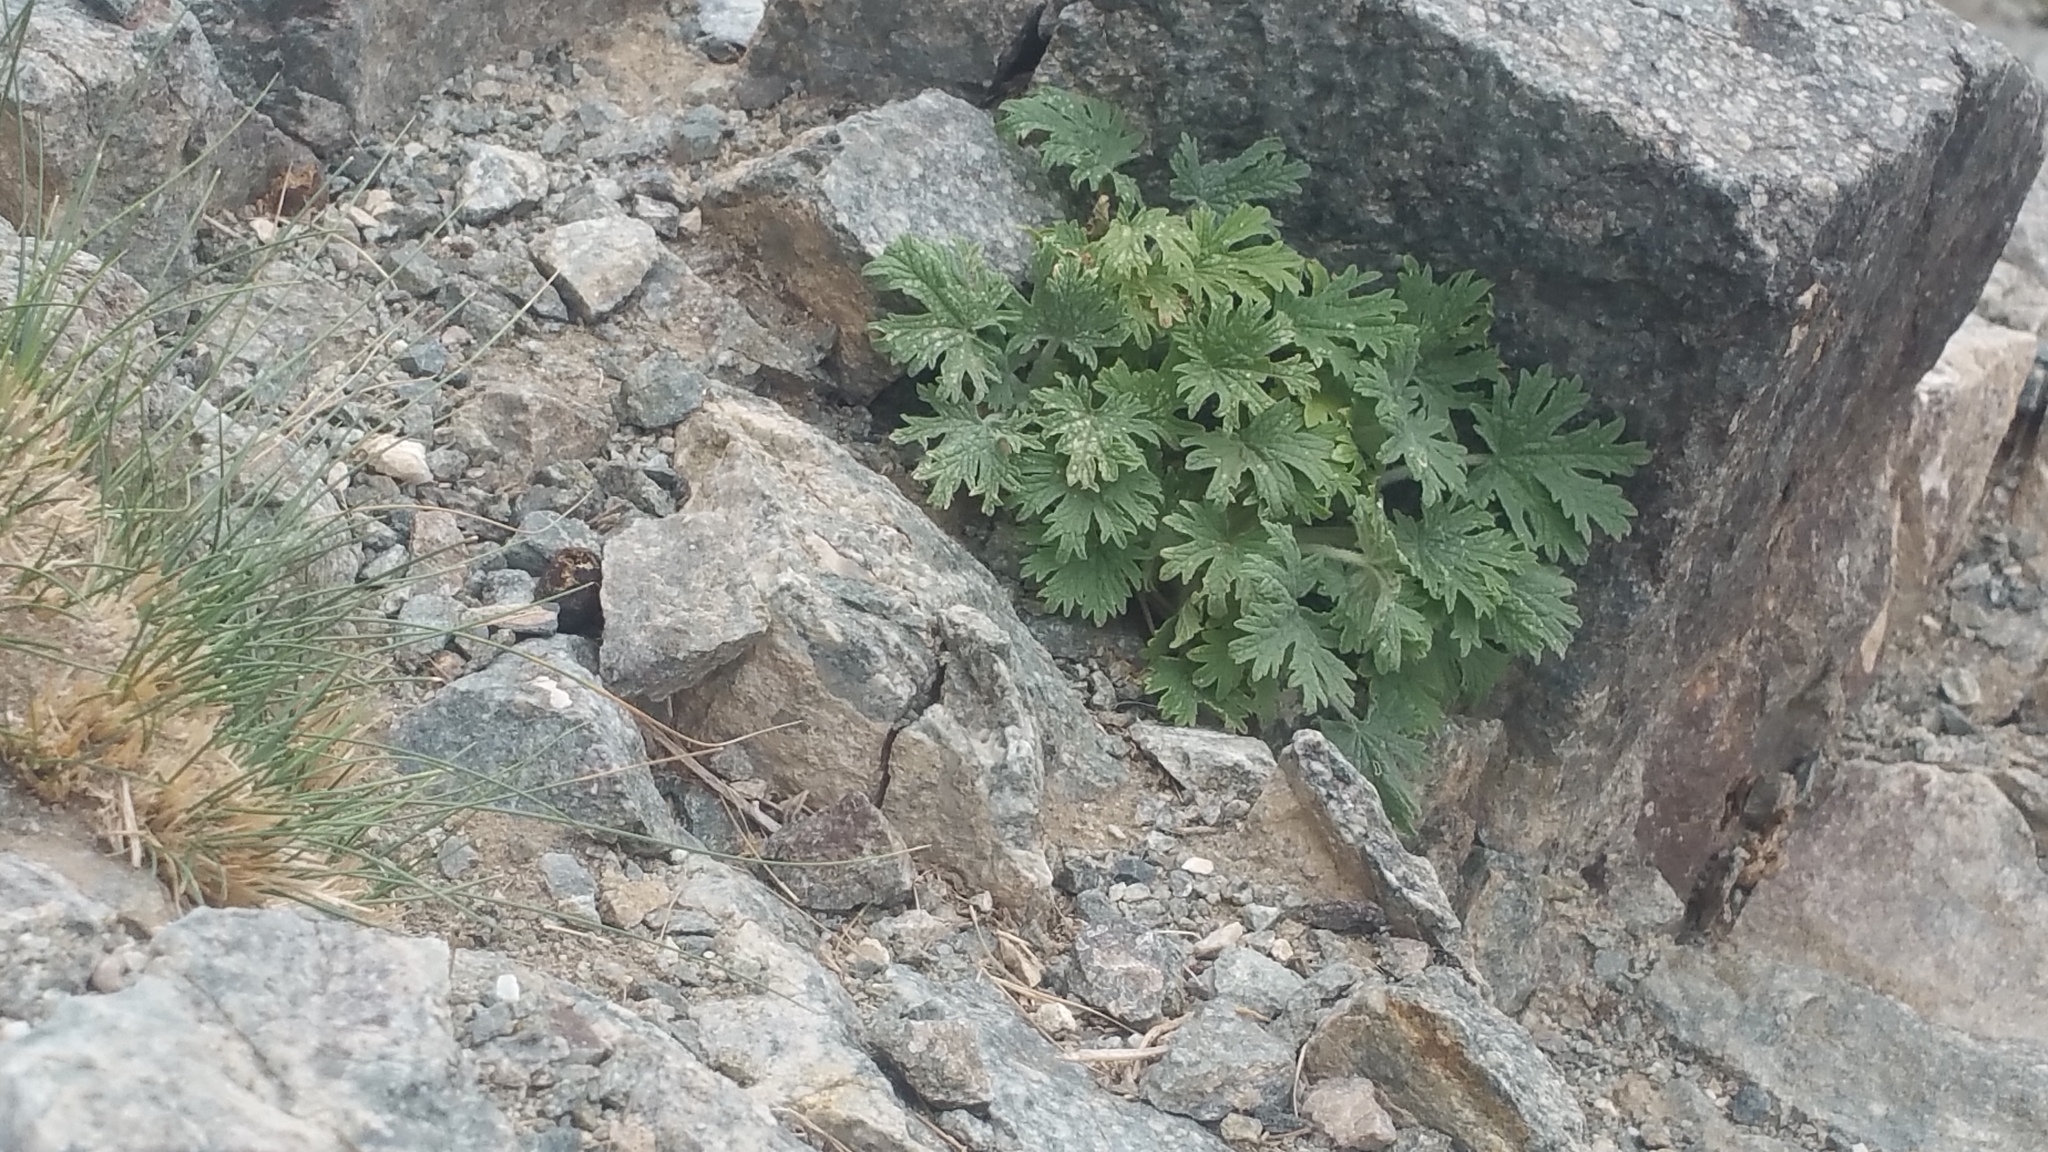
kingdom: Plantae
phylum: Tracheophyta
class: Magnoliopsida
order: Lamiales
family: Lamiaceae
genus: Panzerina
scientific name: Panzerina lanata
